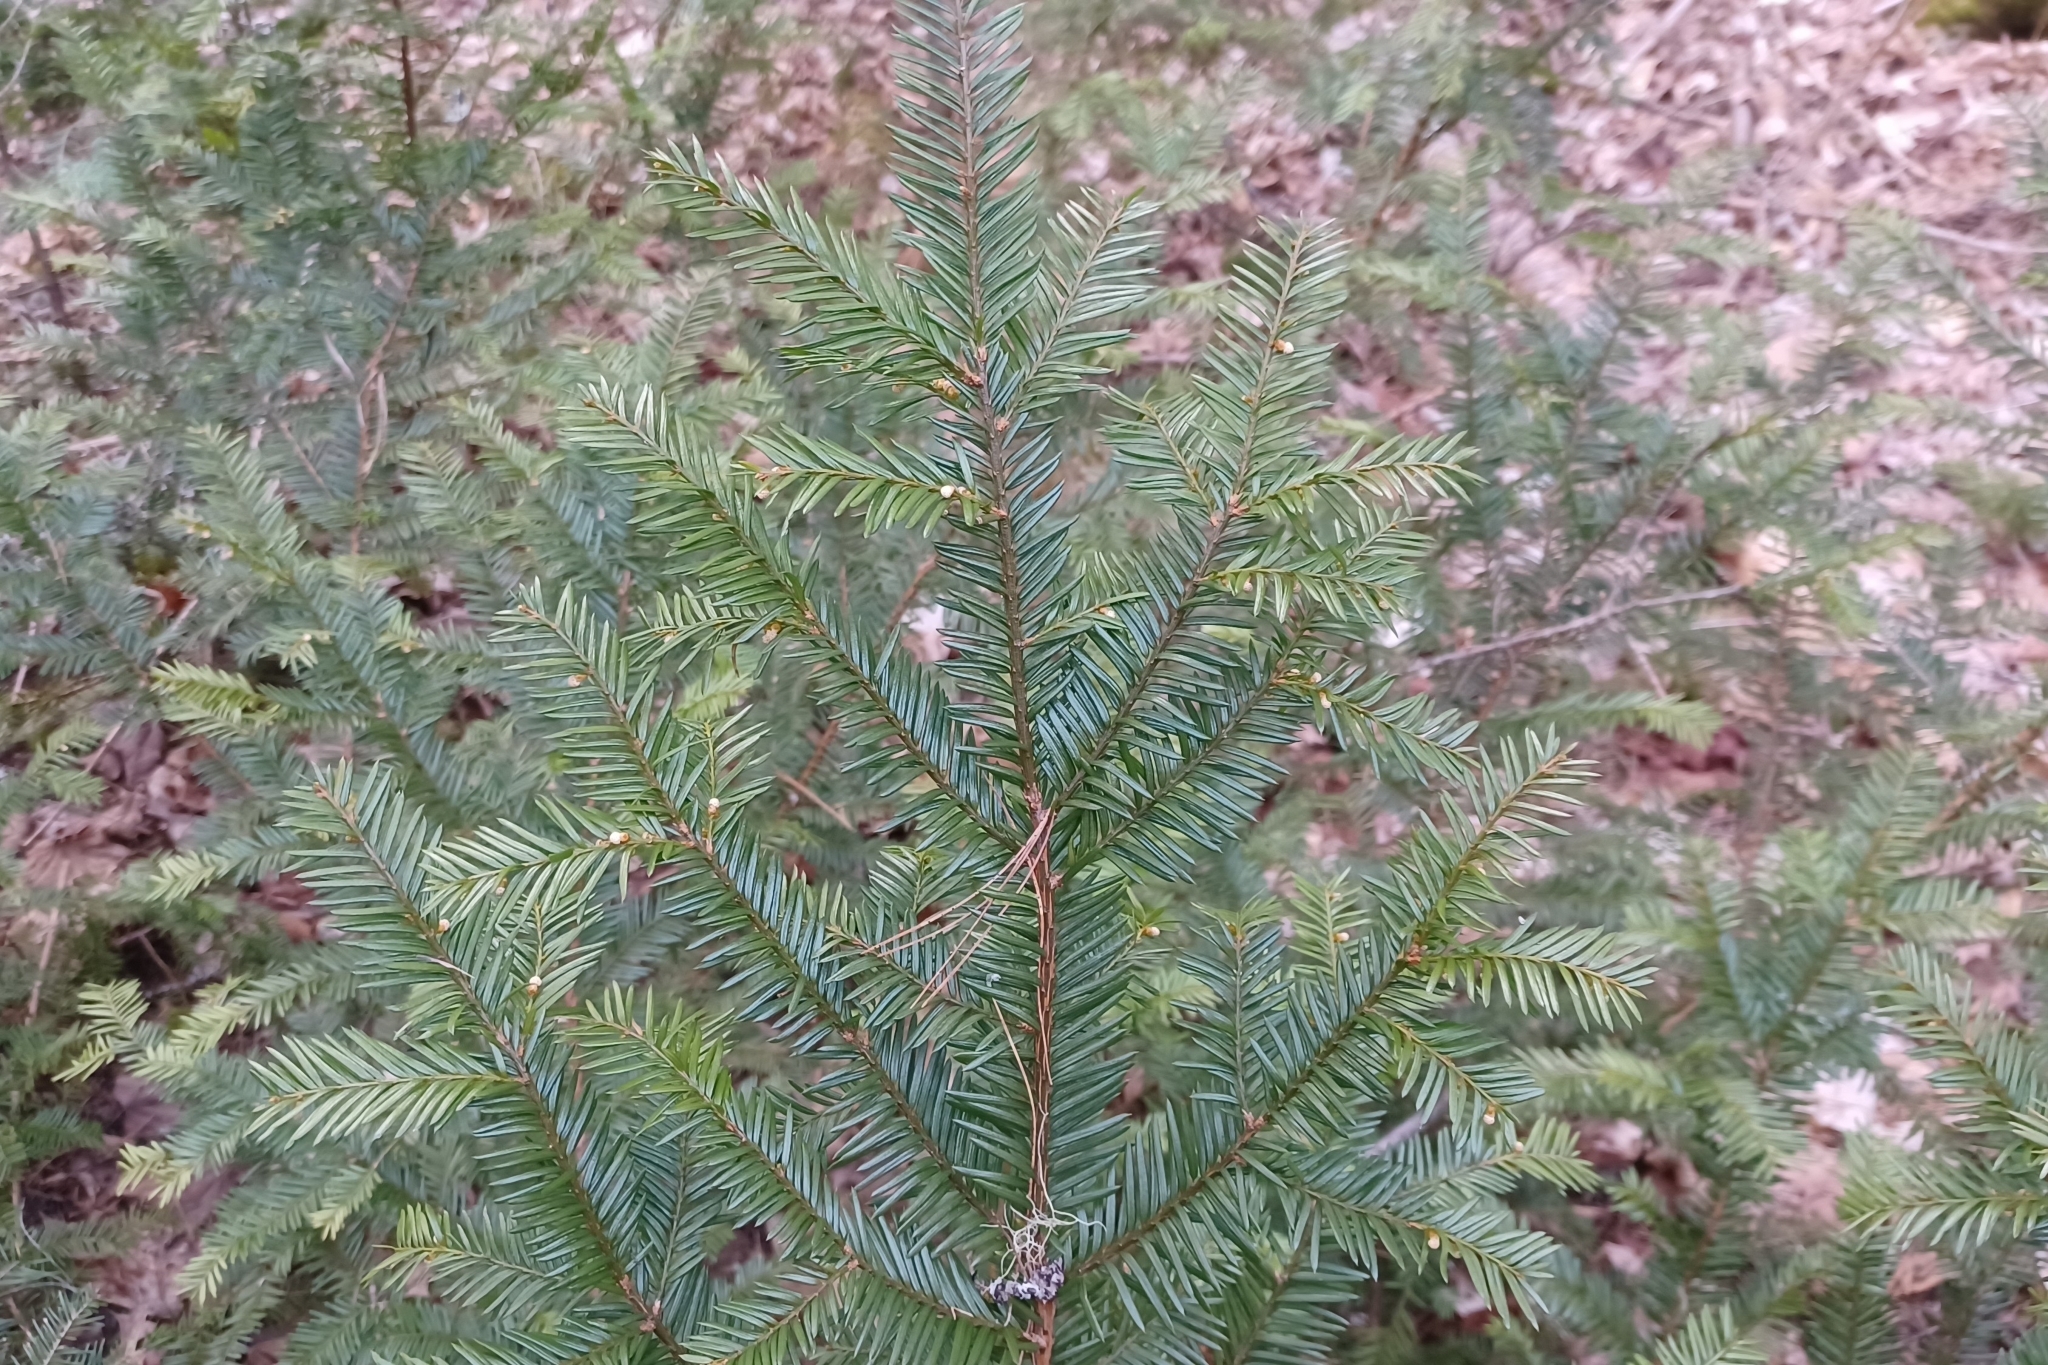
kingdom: Plantae
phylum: Tracheophyta
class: Pinopsida
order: Pinales
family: Taxaceae
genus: Taxus
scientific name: Taxus canadensis
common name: American yew
